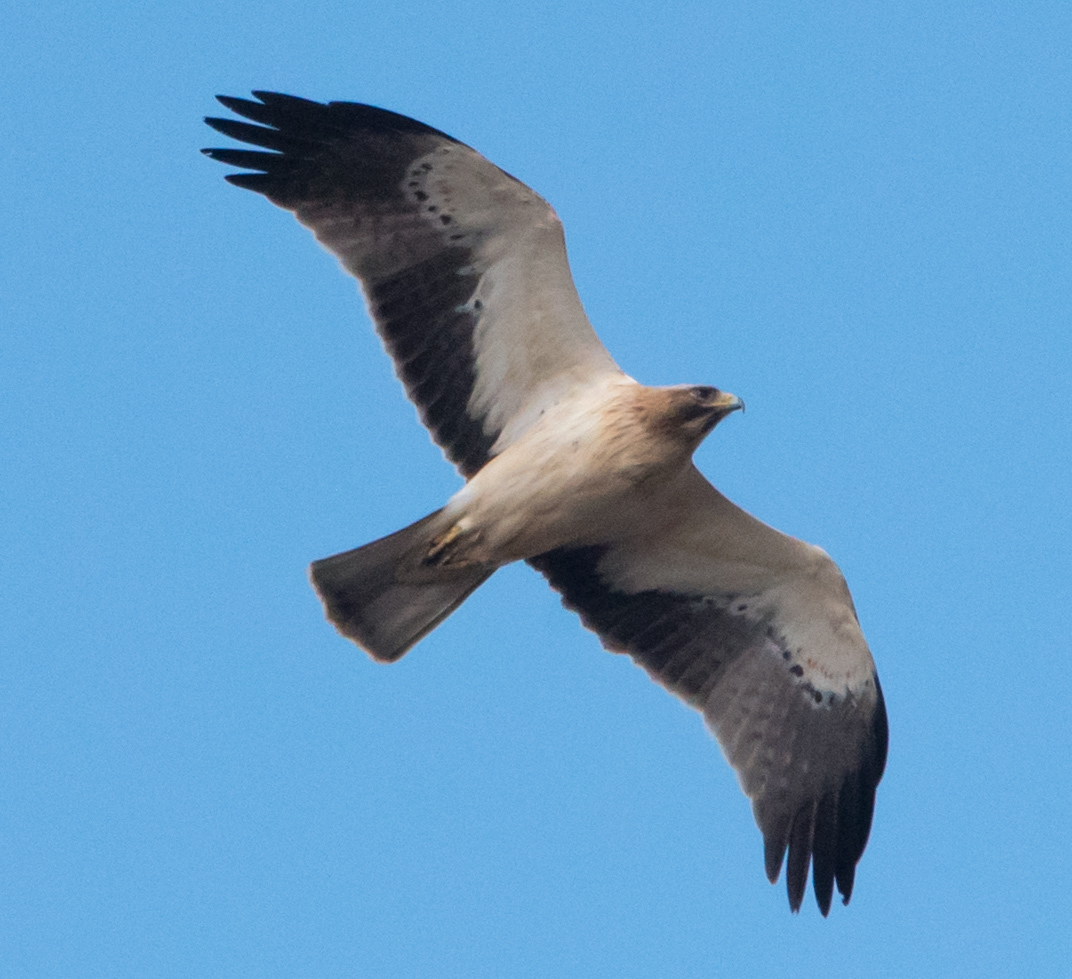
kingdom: Animalia
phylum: Chordata
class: Aves
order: Accipitriformes
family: Accipitridae
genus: Hieraaetus
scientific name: Hieraaetus pennatus
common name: Booted eagle
